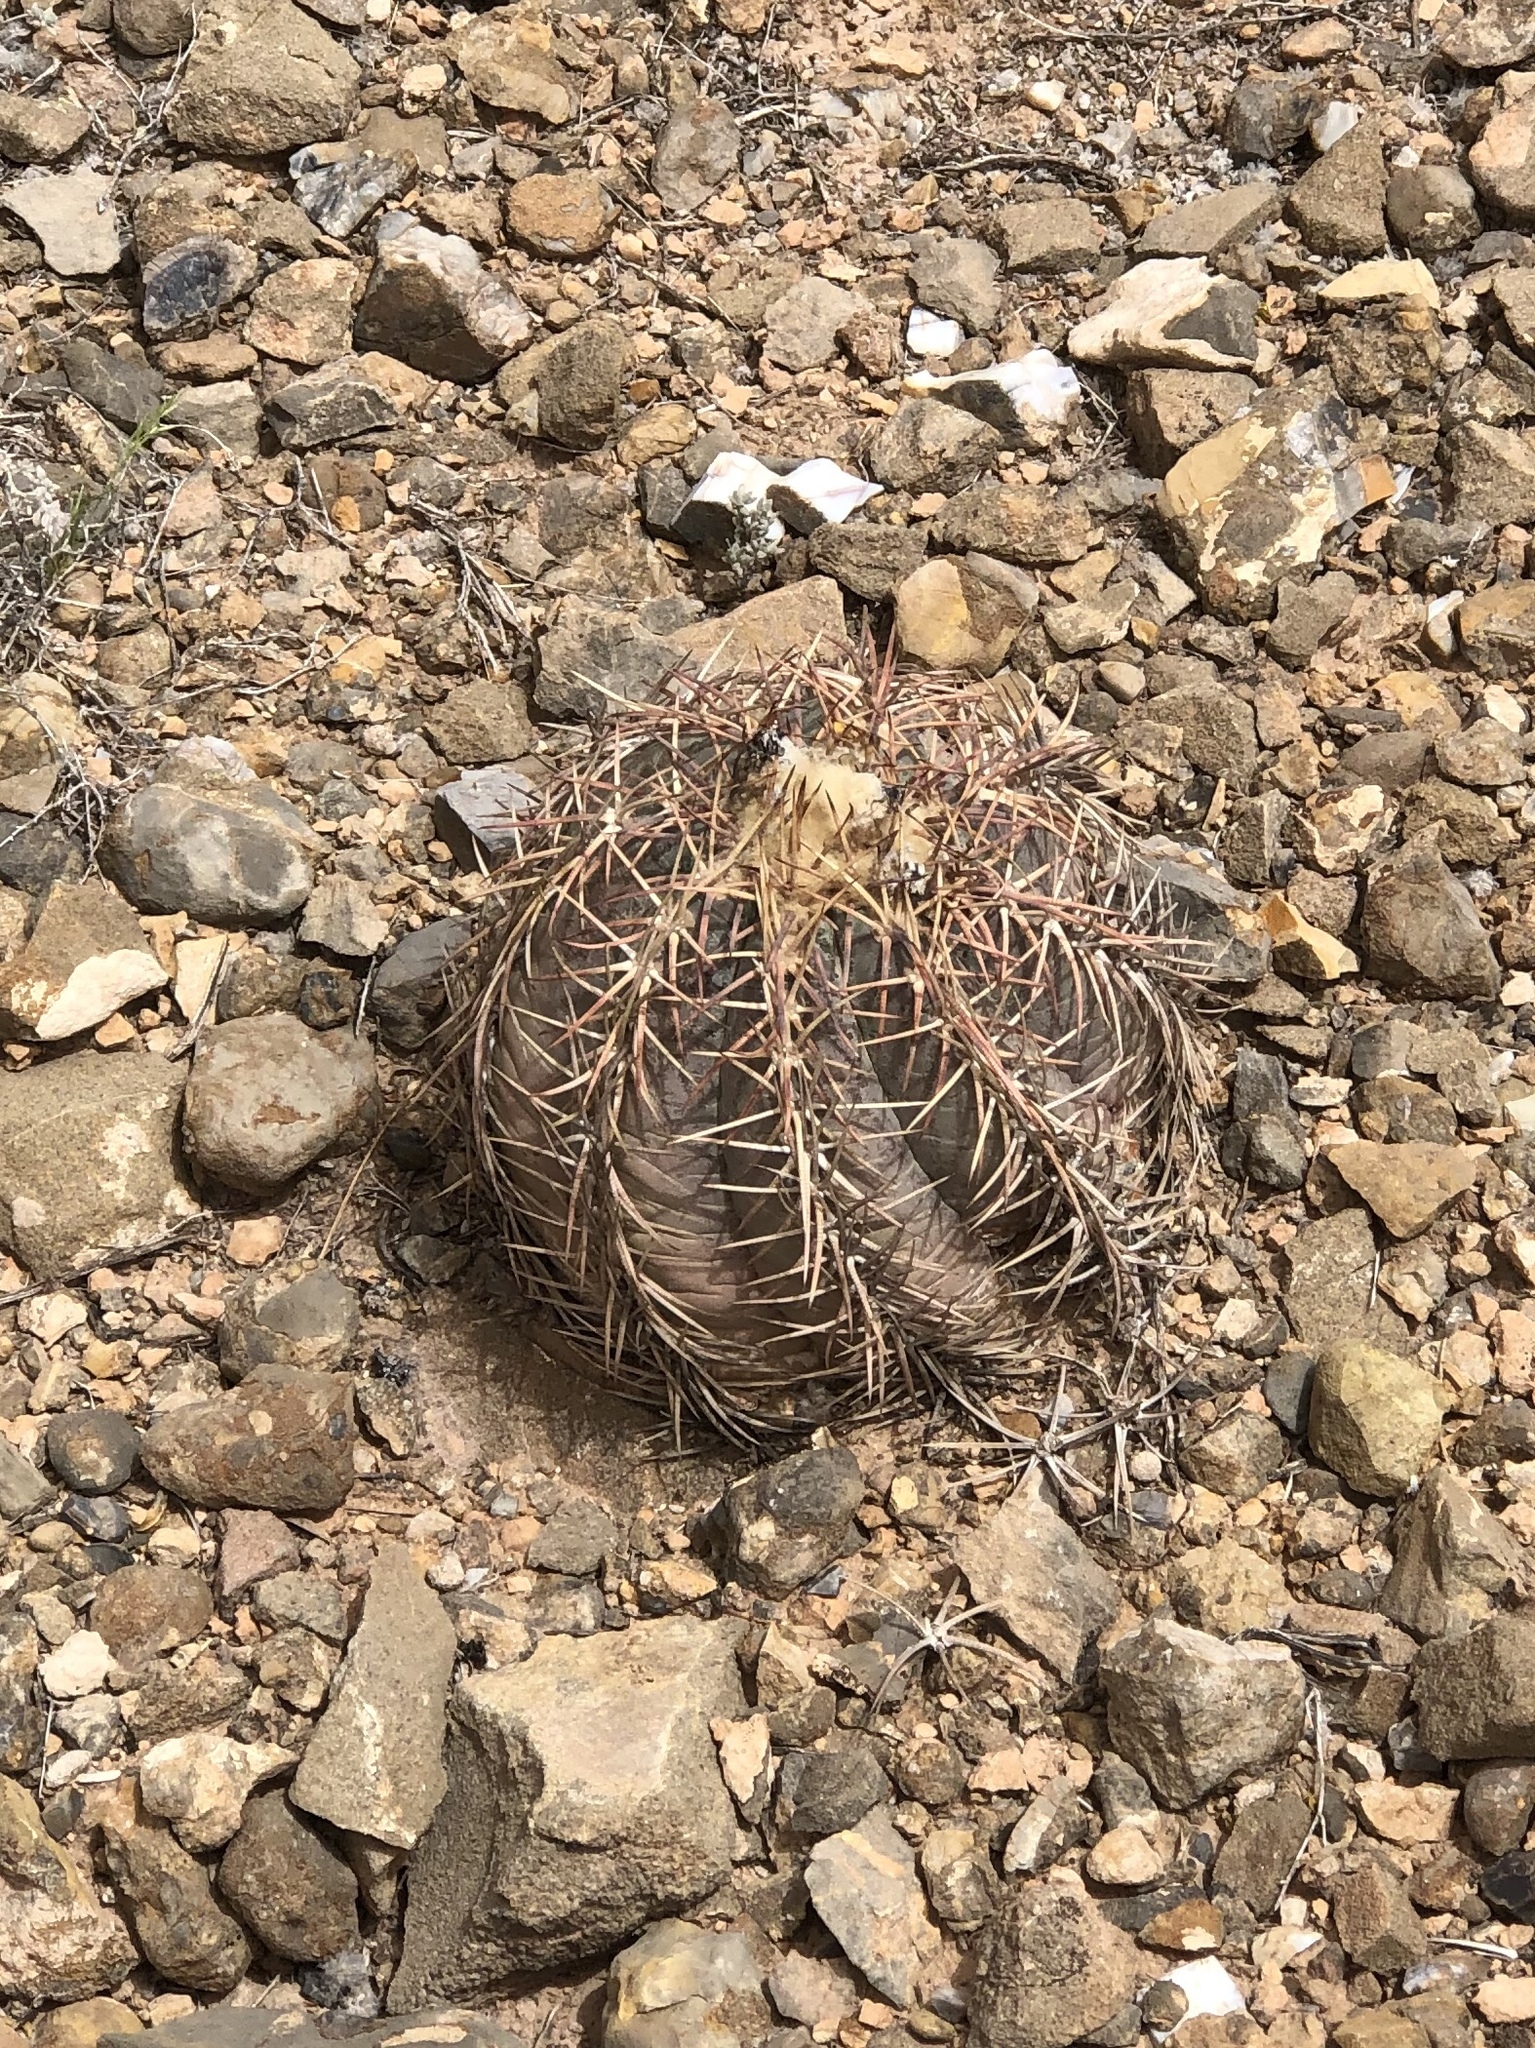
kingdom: Plantae
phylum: Tracheophyta
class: Magnoliopsida
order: Caryophyllales
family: Cactaceae
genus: Echinocactus
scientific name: Echinocactus horizonthalonius
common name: Devilshead
